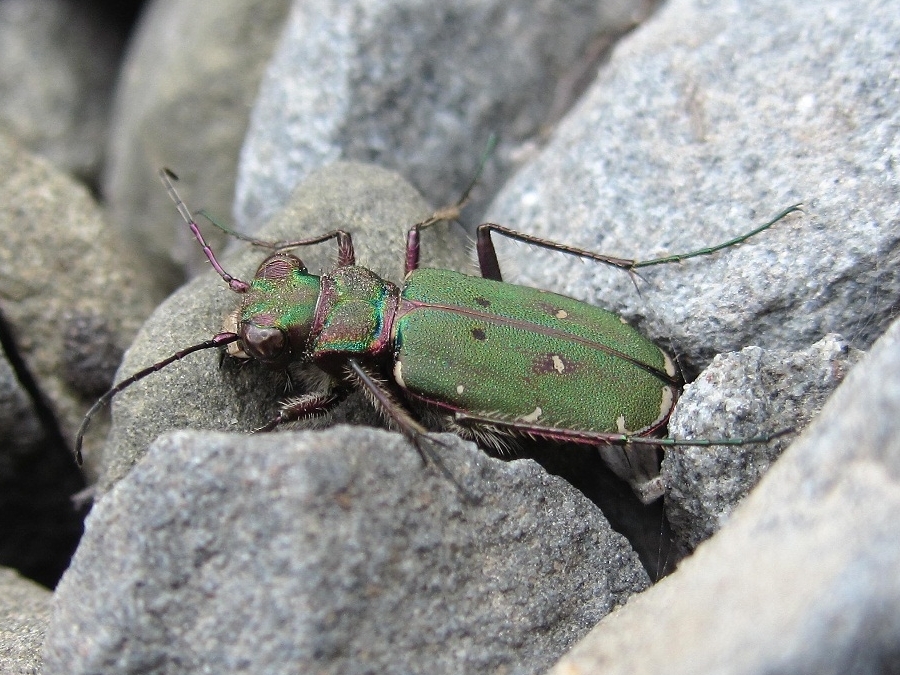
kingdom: Animalia
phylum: Arthropoda
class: Insecta
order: Coleoptera
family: Carabidae
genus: Cicindela
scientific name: Cicindela campestris
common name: Common tiger beetle
